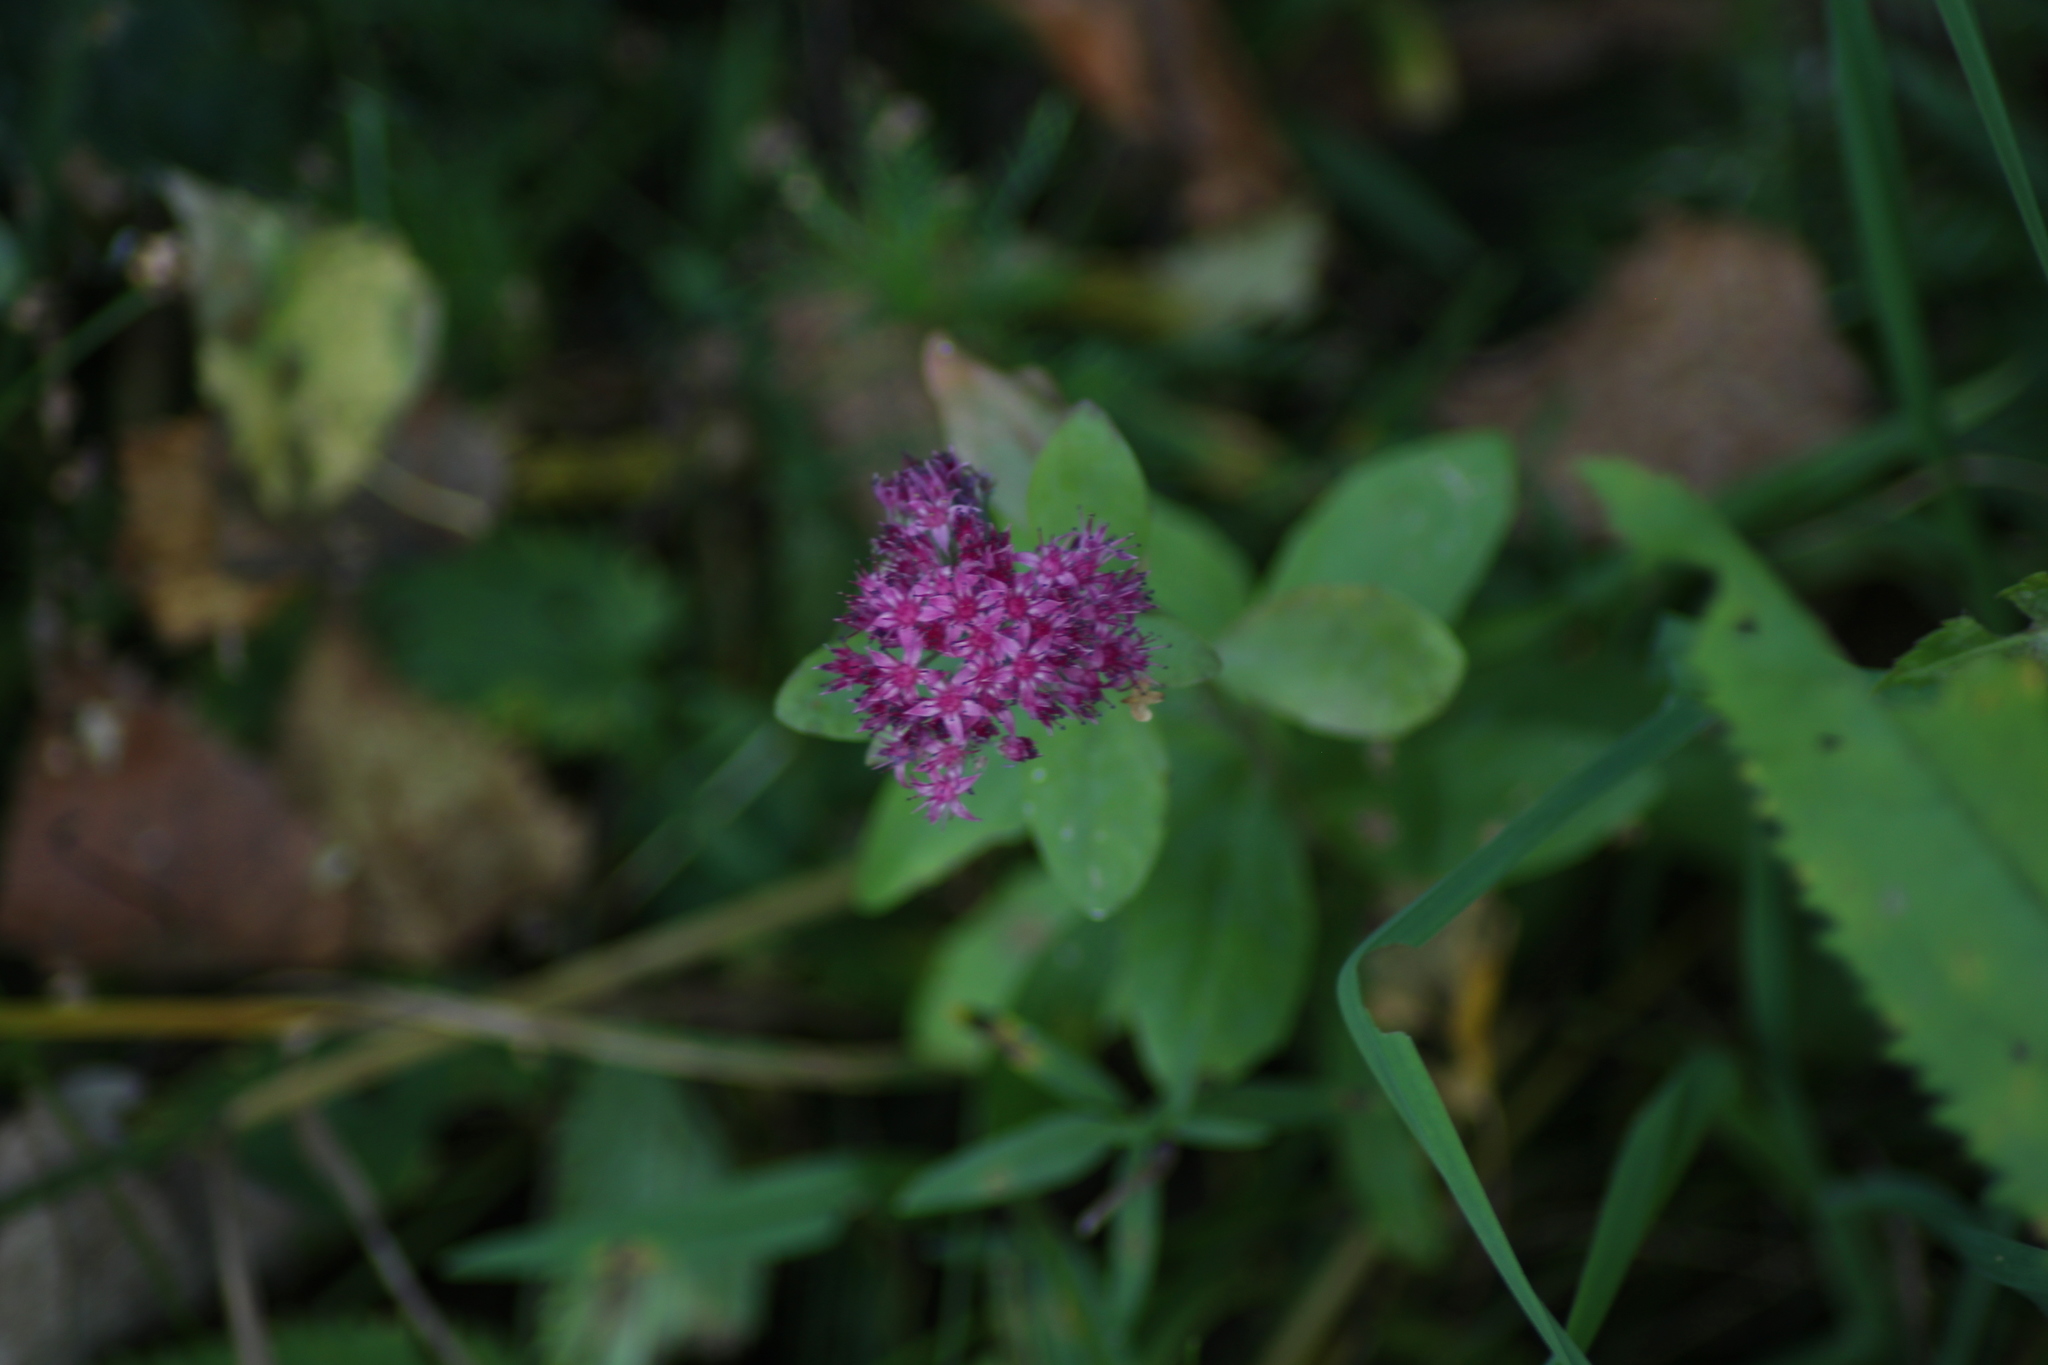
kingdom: Plantae
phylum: Tracheophyta
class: Magnoliopsida
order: Saxifragales
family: Crassulaceae
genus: Hylotelephium
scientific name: Hylotelephium telephium
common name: Live-forever
